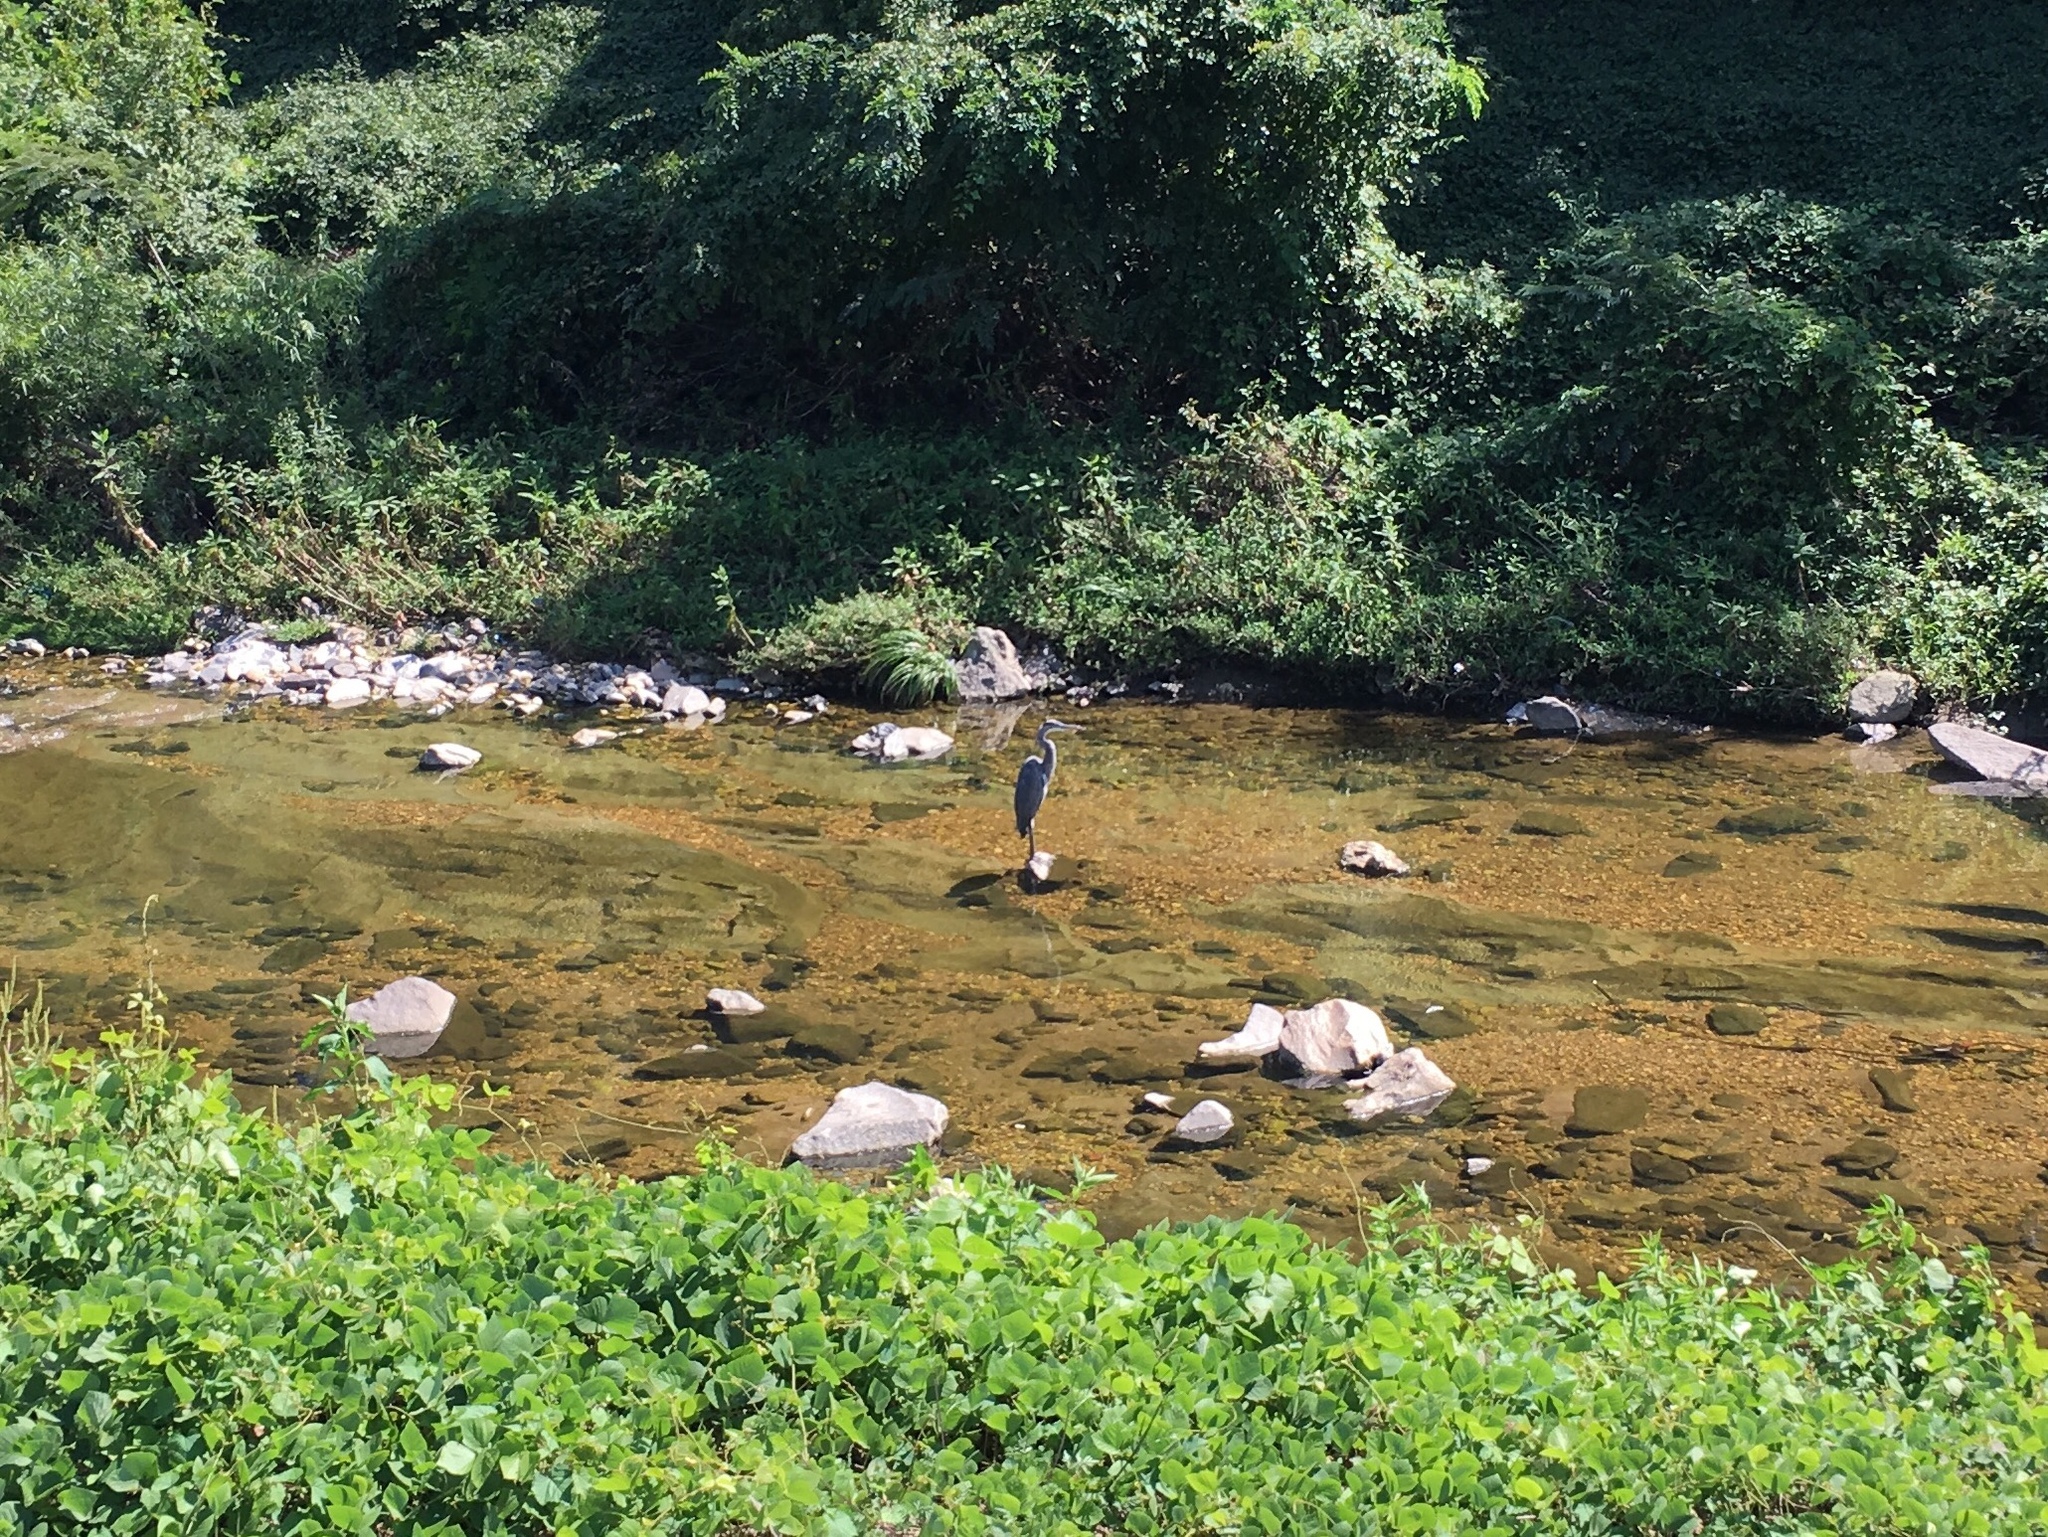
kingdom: Animalia
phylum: Chordata
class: Aves
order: Pelecaniformes
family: Ardeidae
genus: Ardea
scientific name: Ardea herodias
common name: Great blue heron
